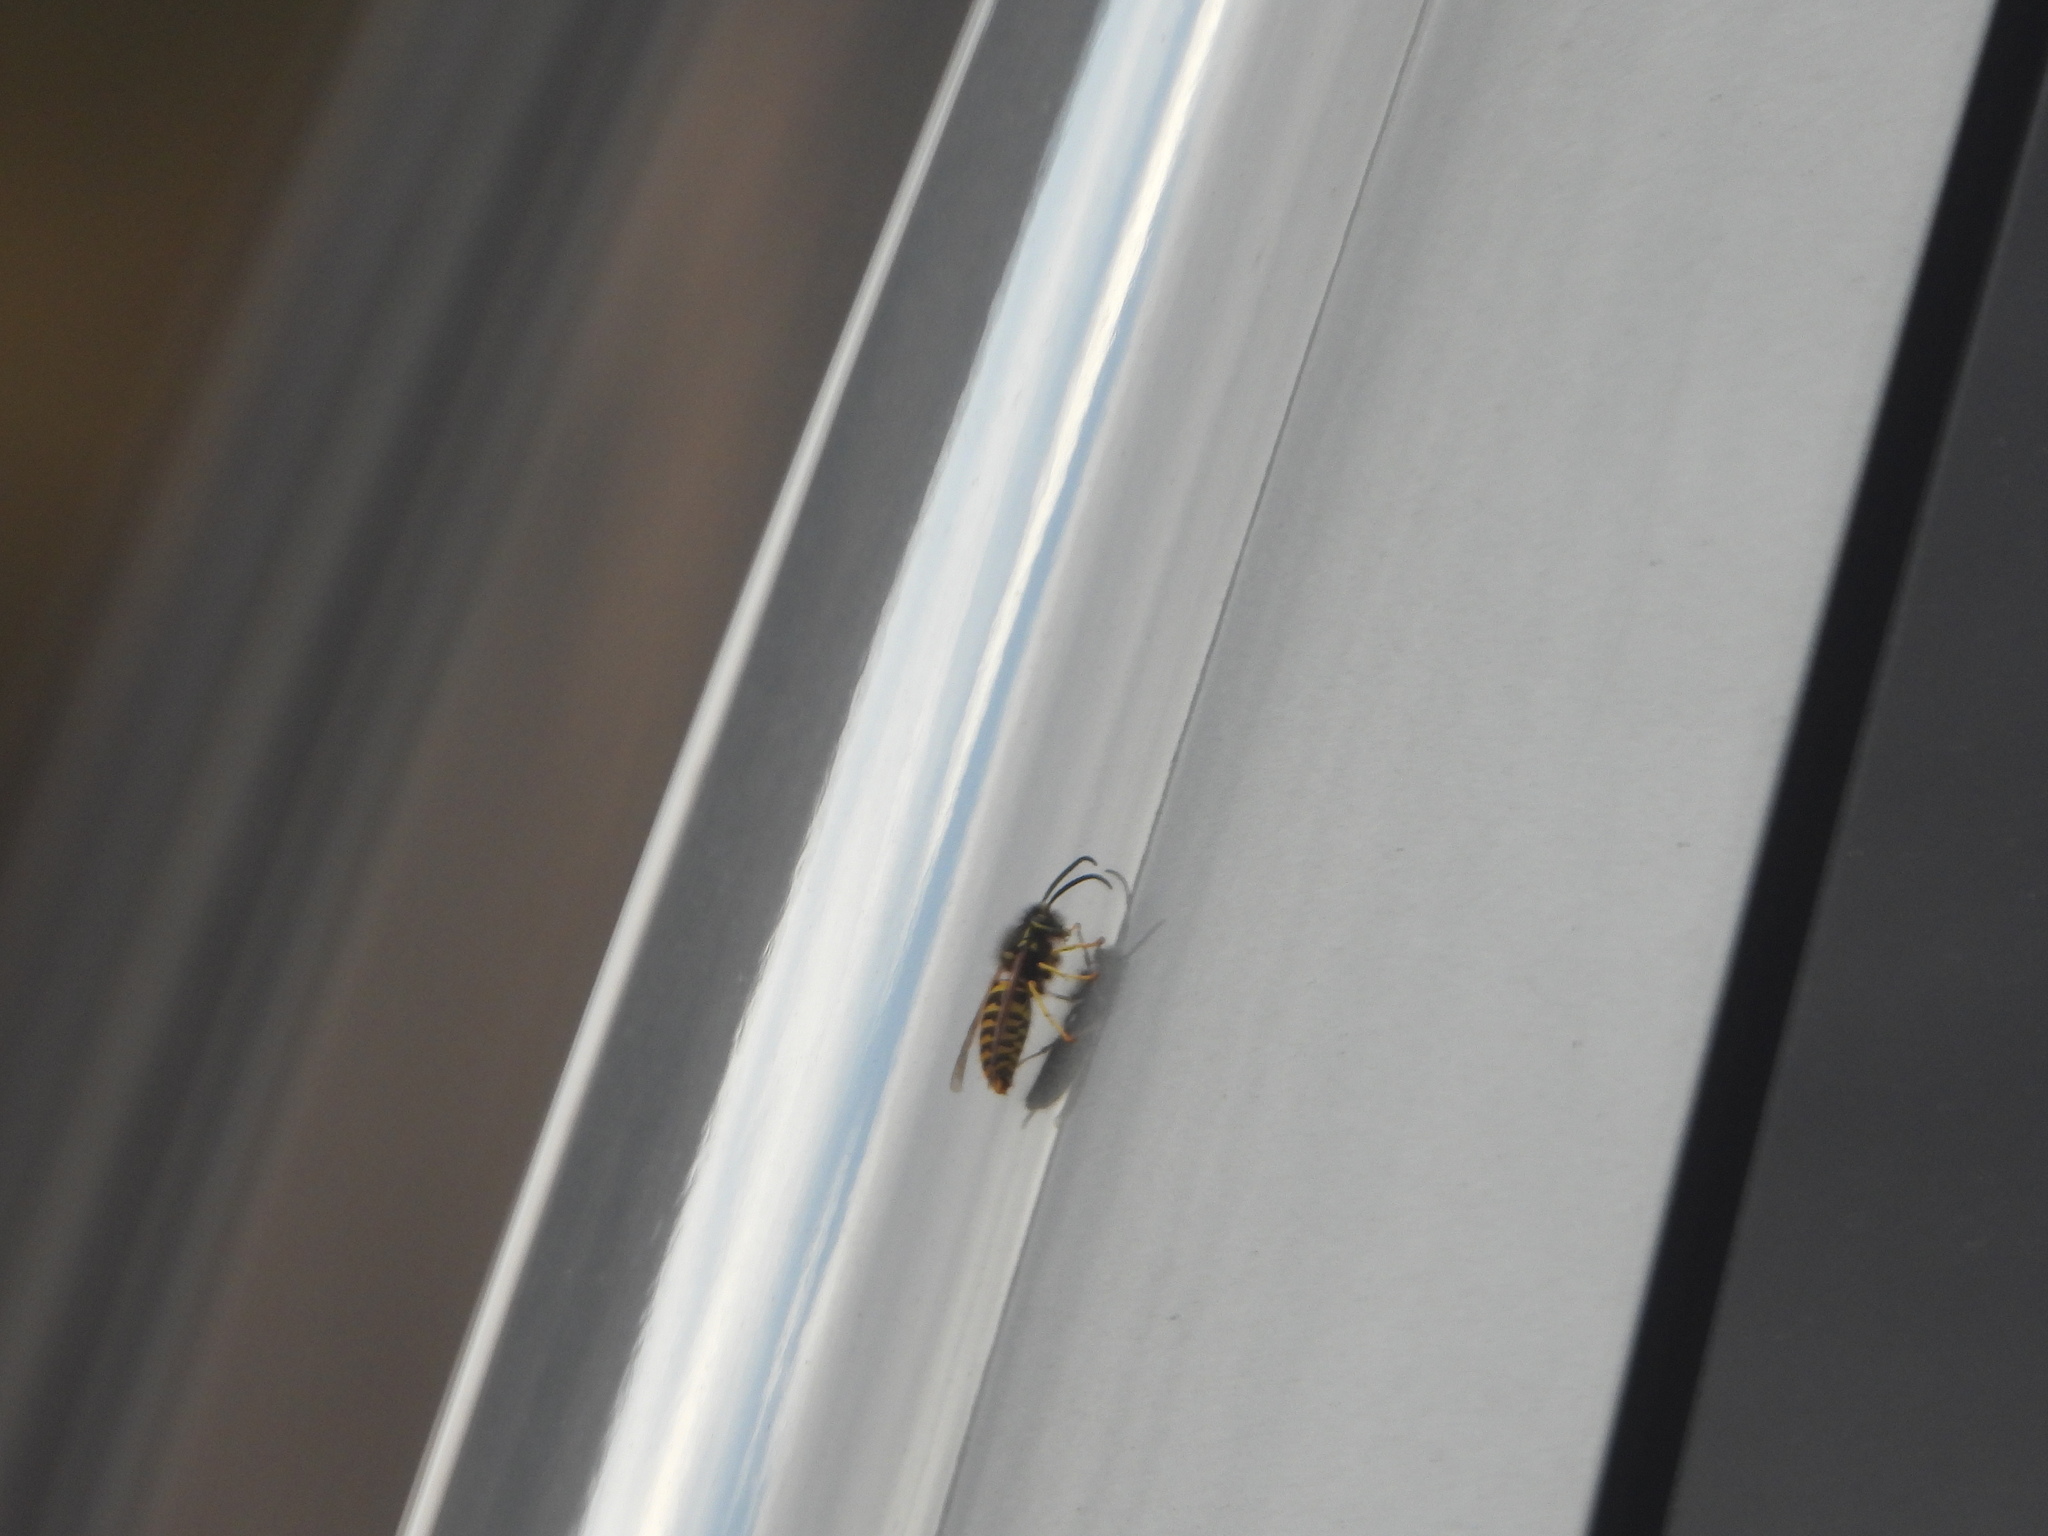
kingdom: Animalia
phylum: Arthropoda
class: Insecta
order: Hymenoptera
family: Vespidae
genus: Vespula
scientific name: Vespula pensylvanica
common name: Western yellowjacket
